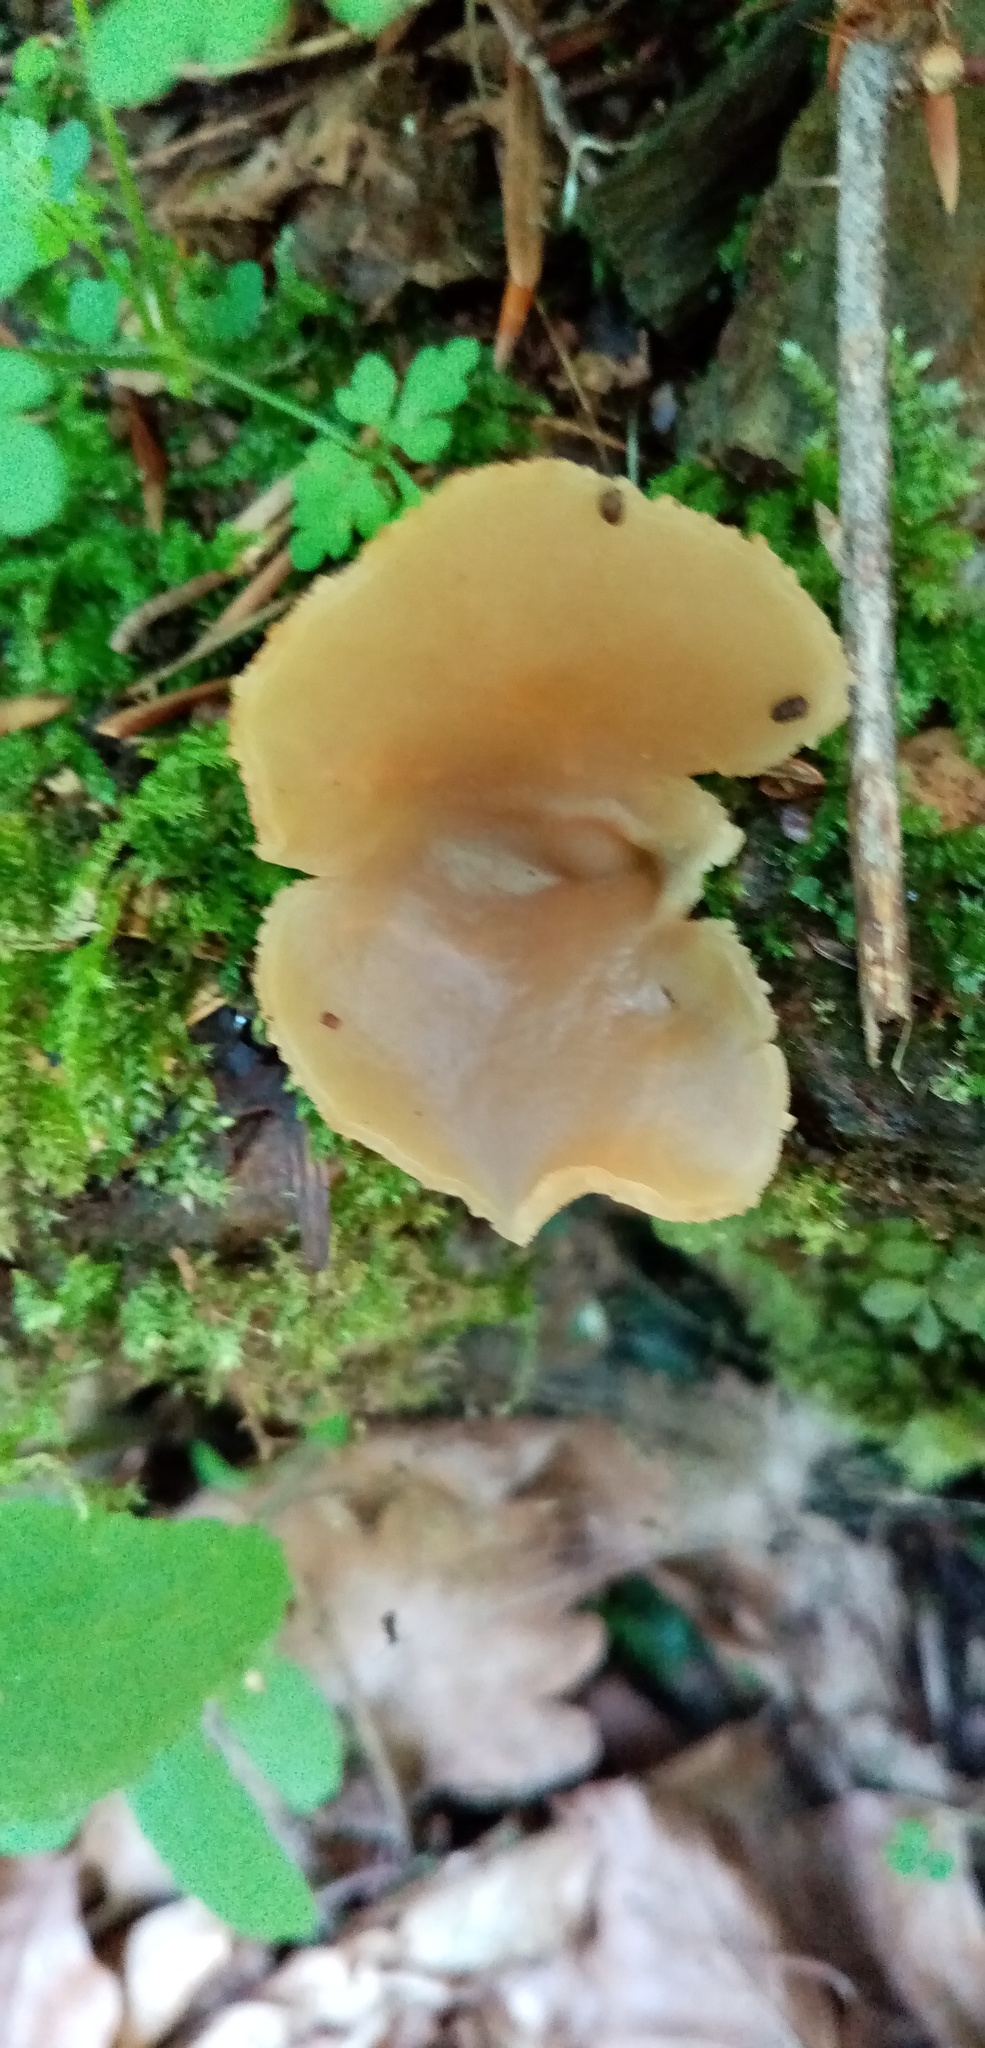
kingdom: Fungi
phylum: Ascomycota
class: Pezizomycetes
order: Pezizales
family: Pezizaceae
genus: Peziza
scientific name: Peziza varia
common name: Layered cup
